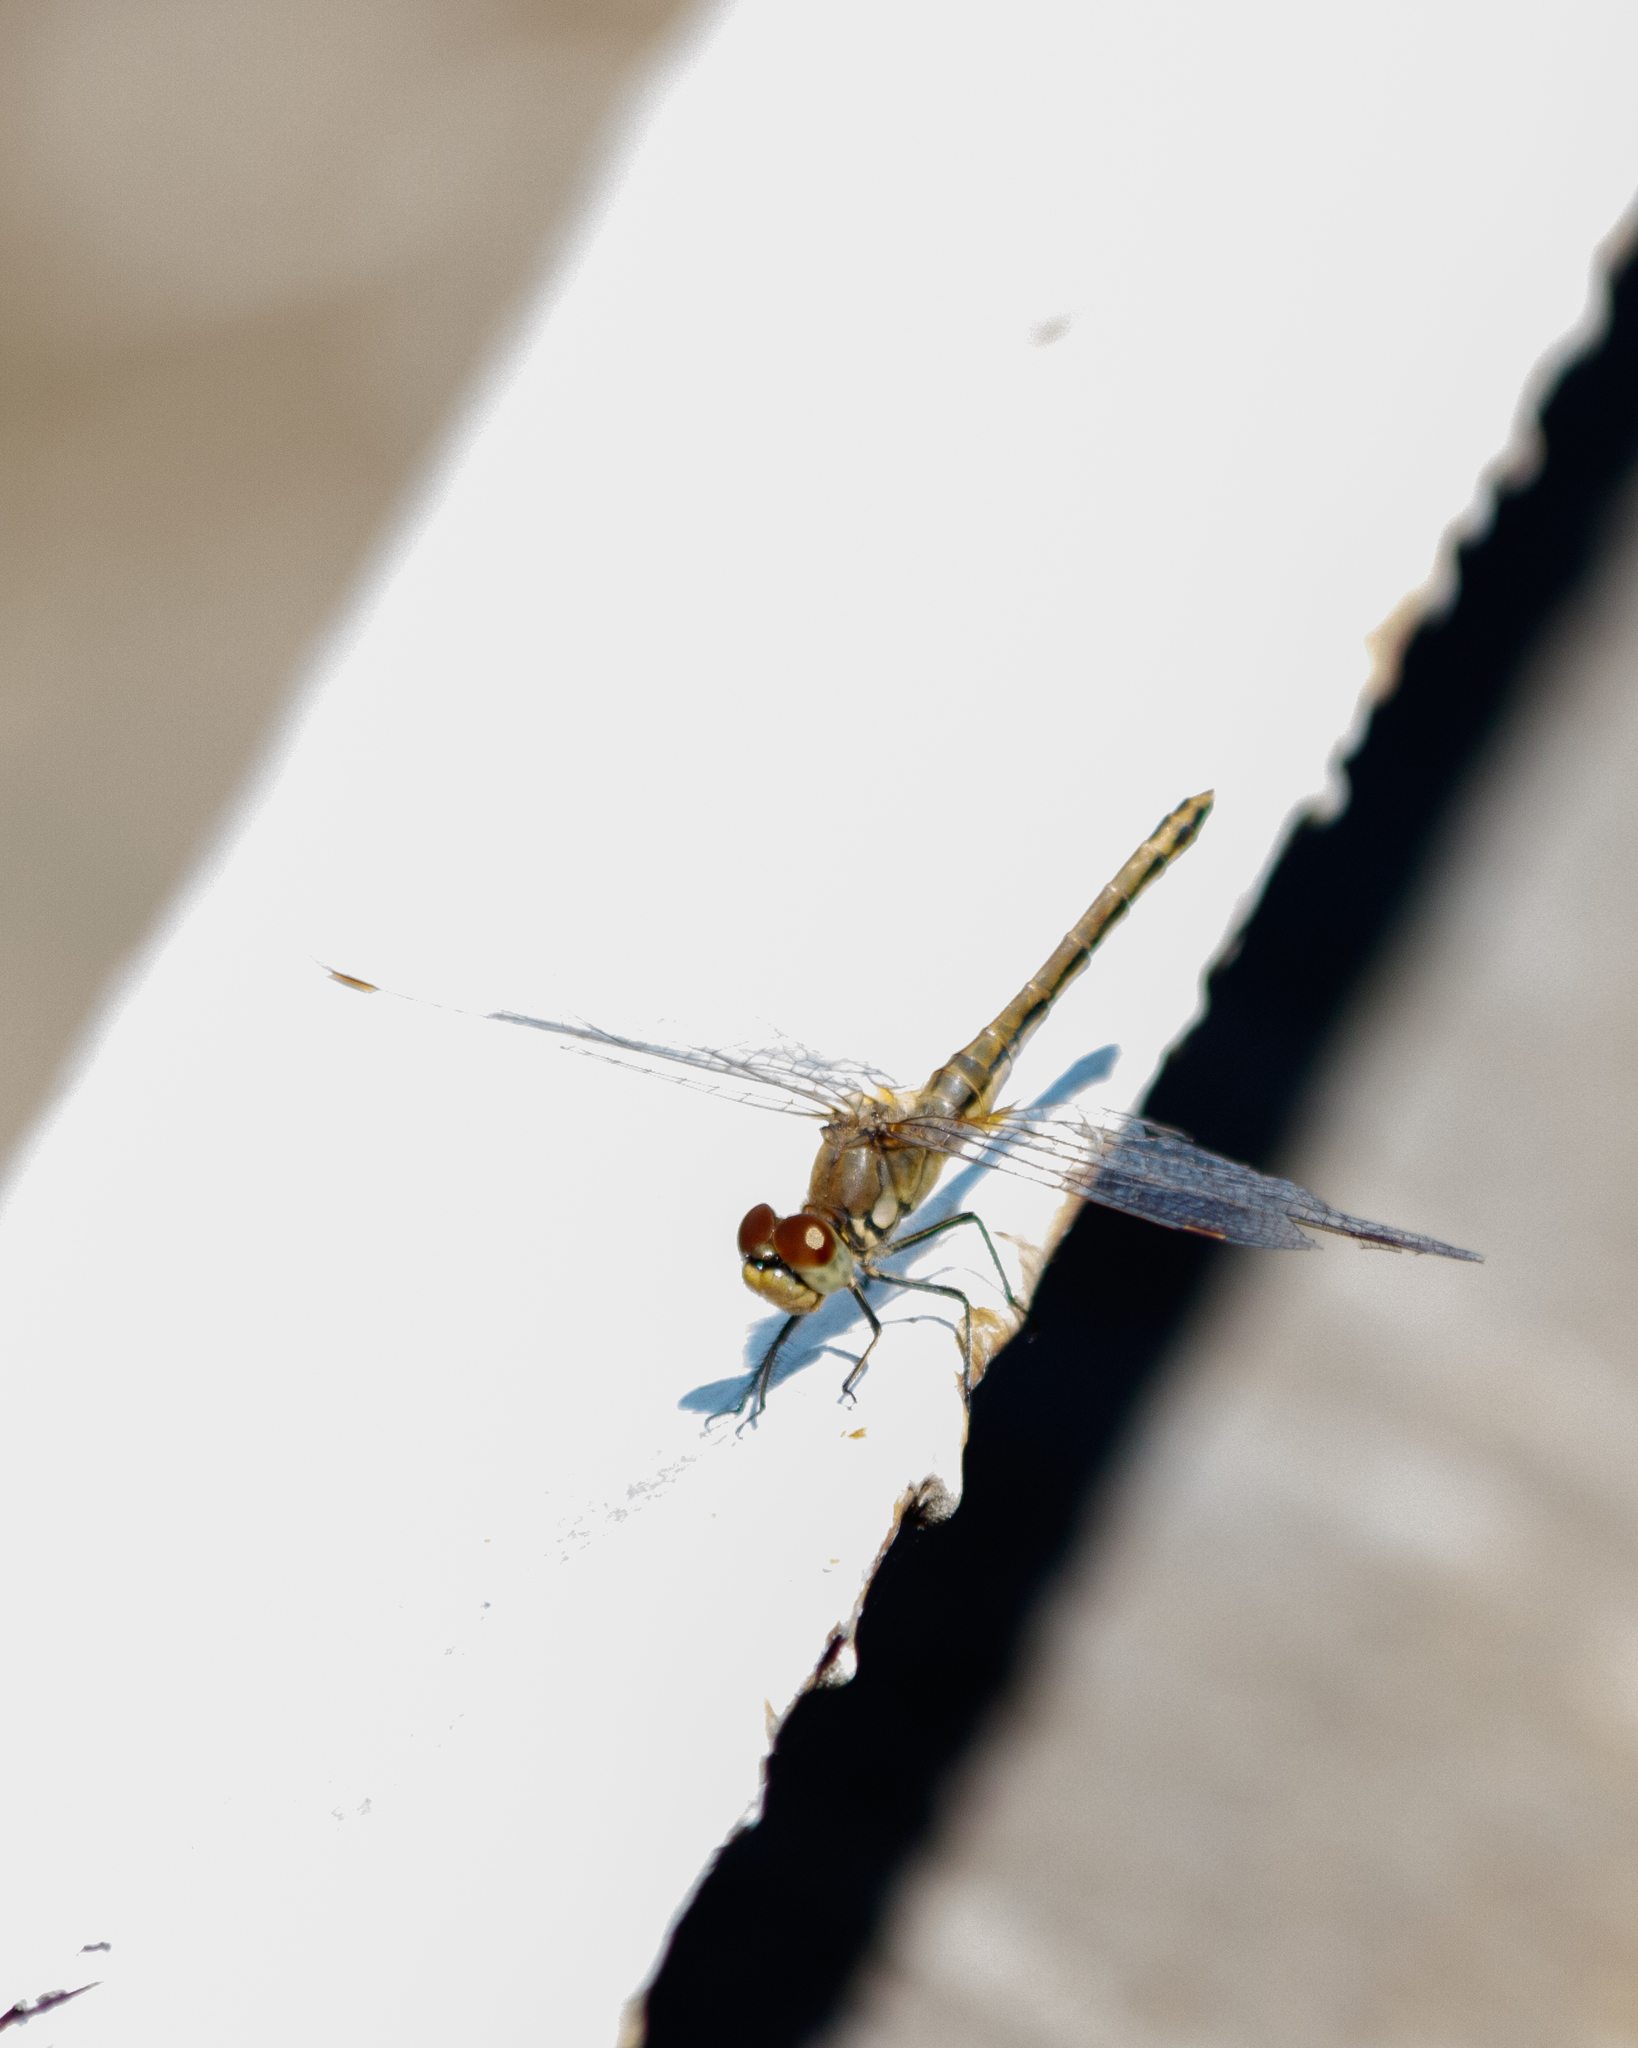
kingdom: Animalia
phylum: Arthropoda
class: Insecta
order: Odonata
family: Libellulidae
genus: Sympetrum
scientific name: Sympetrum flaveolum
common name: Yellow-winged darter
